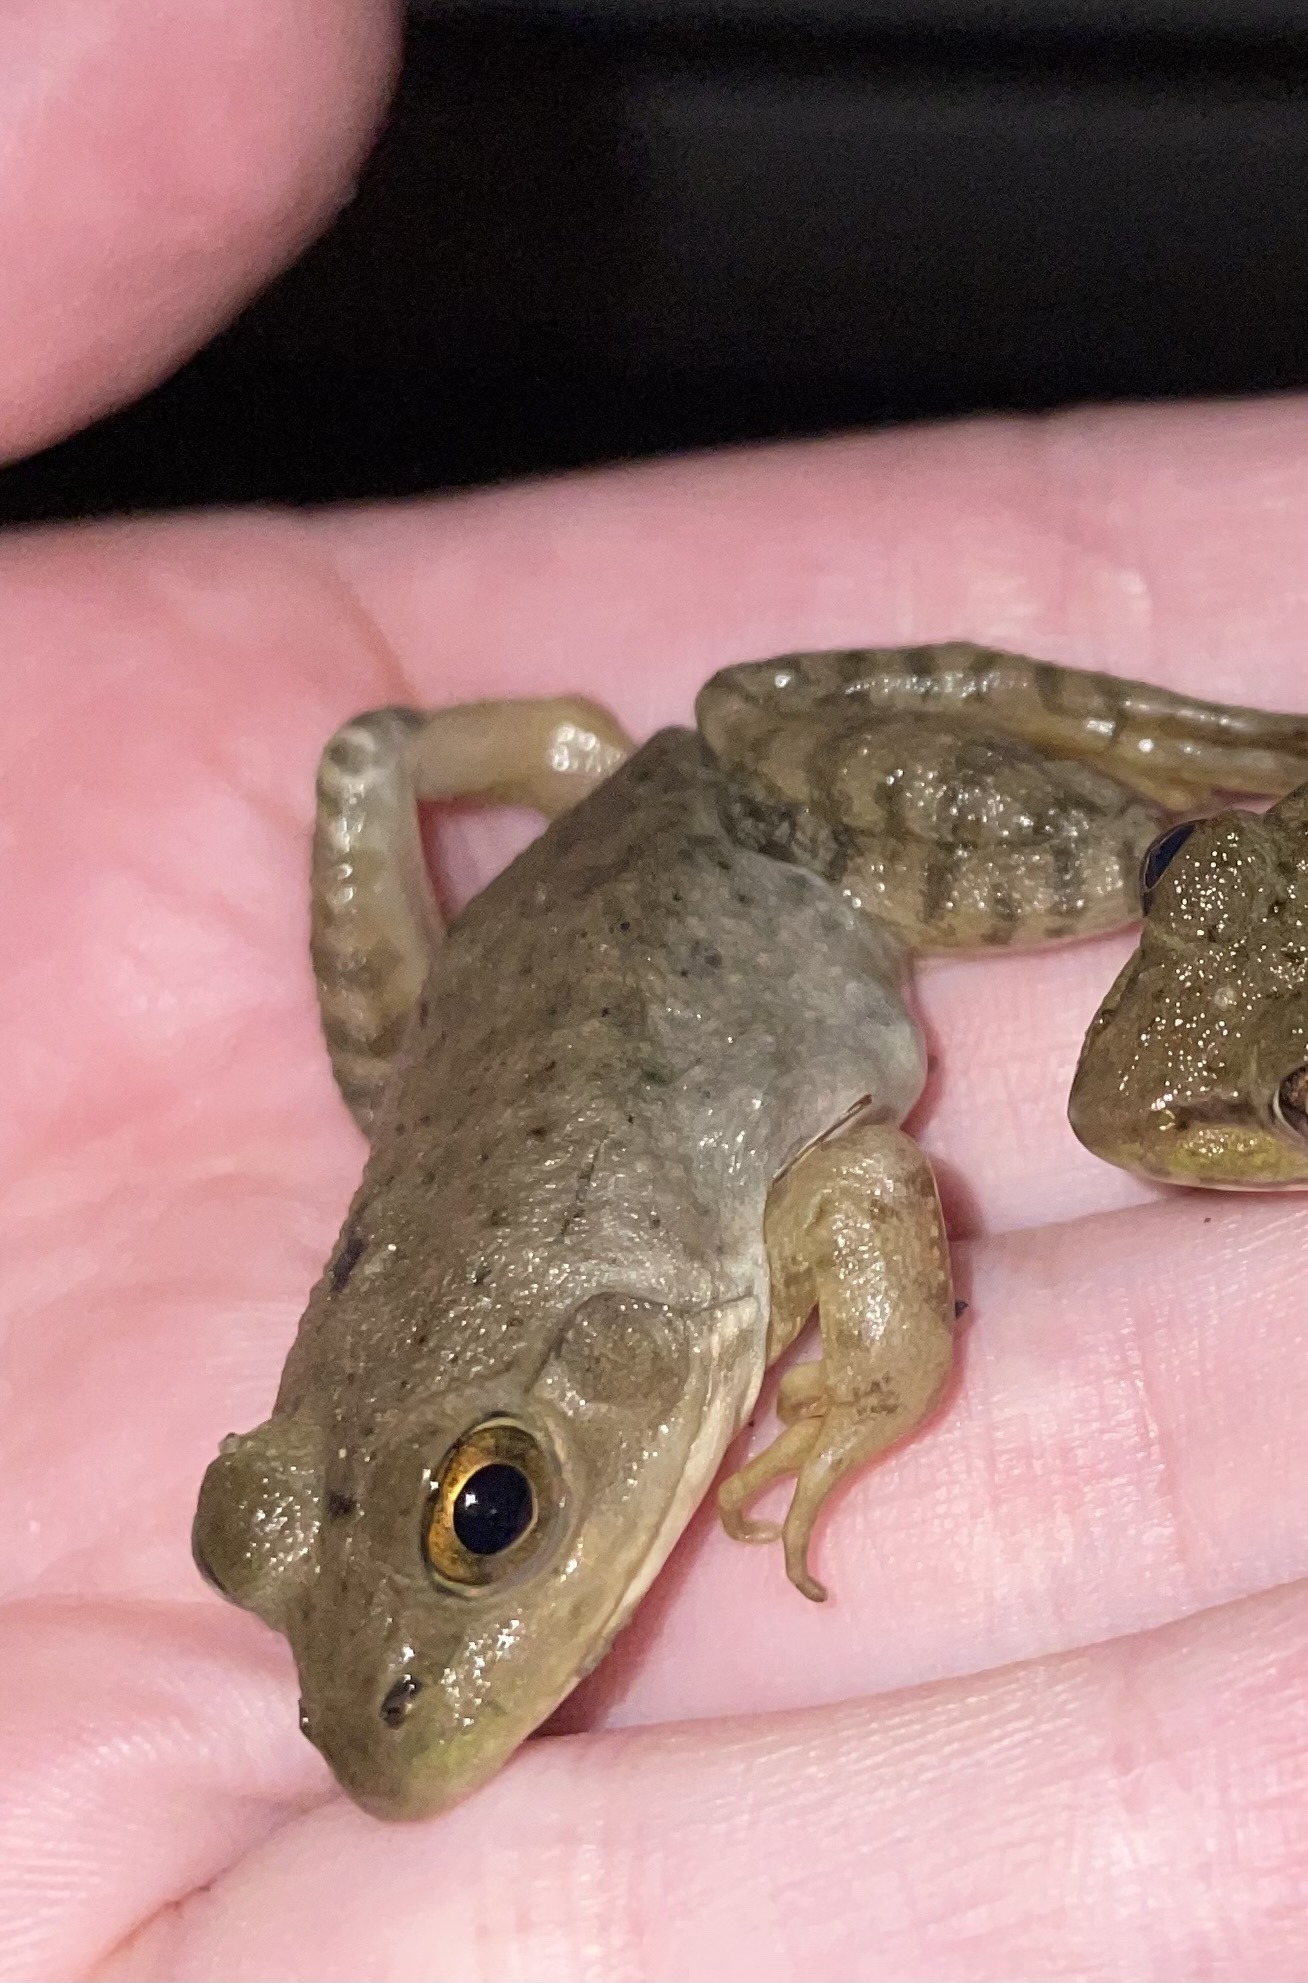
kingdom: Animalia
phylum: Chordata
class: Amphibia
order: Anura
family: Ranidae
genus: Lithobates
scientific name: Lithobates catesbeianus
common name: American bullfrog
